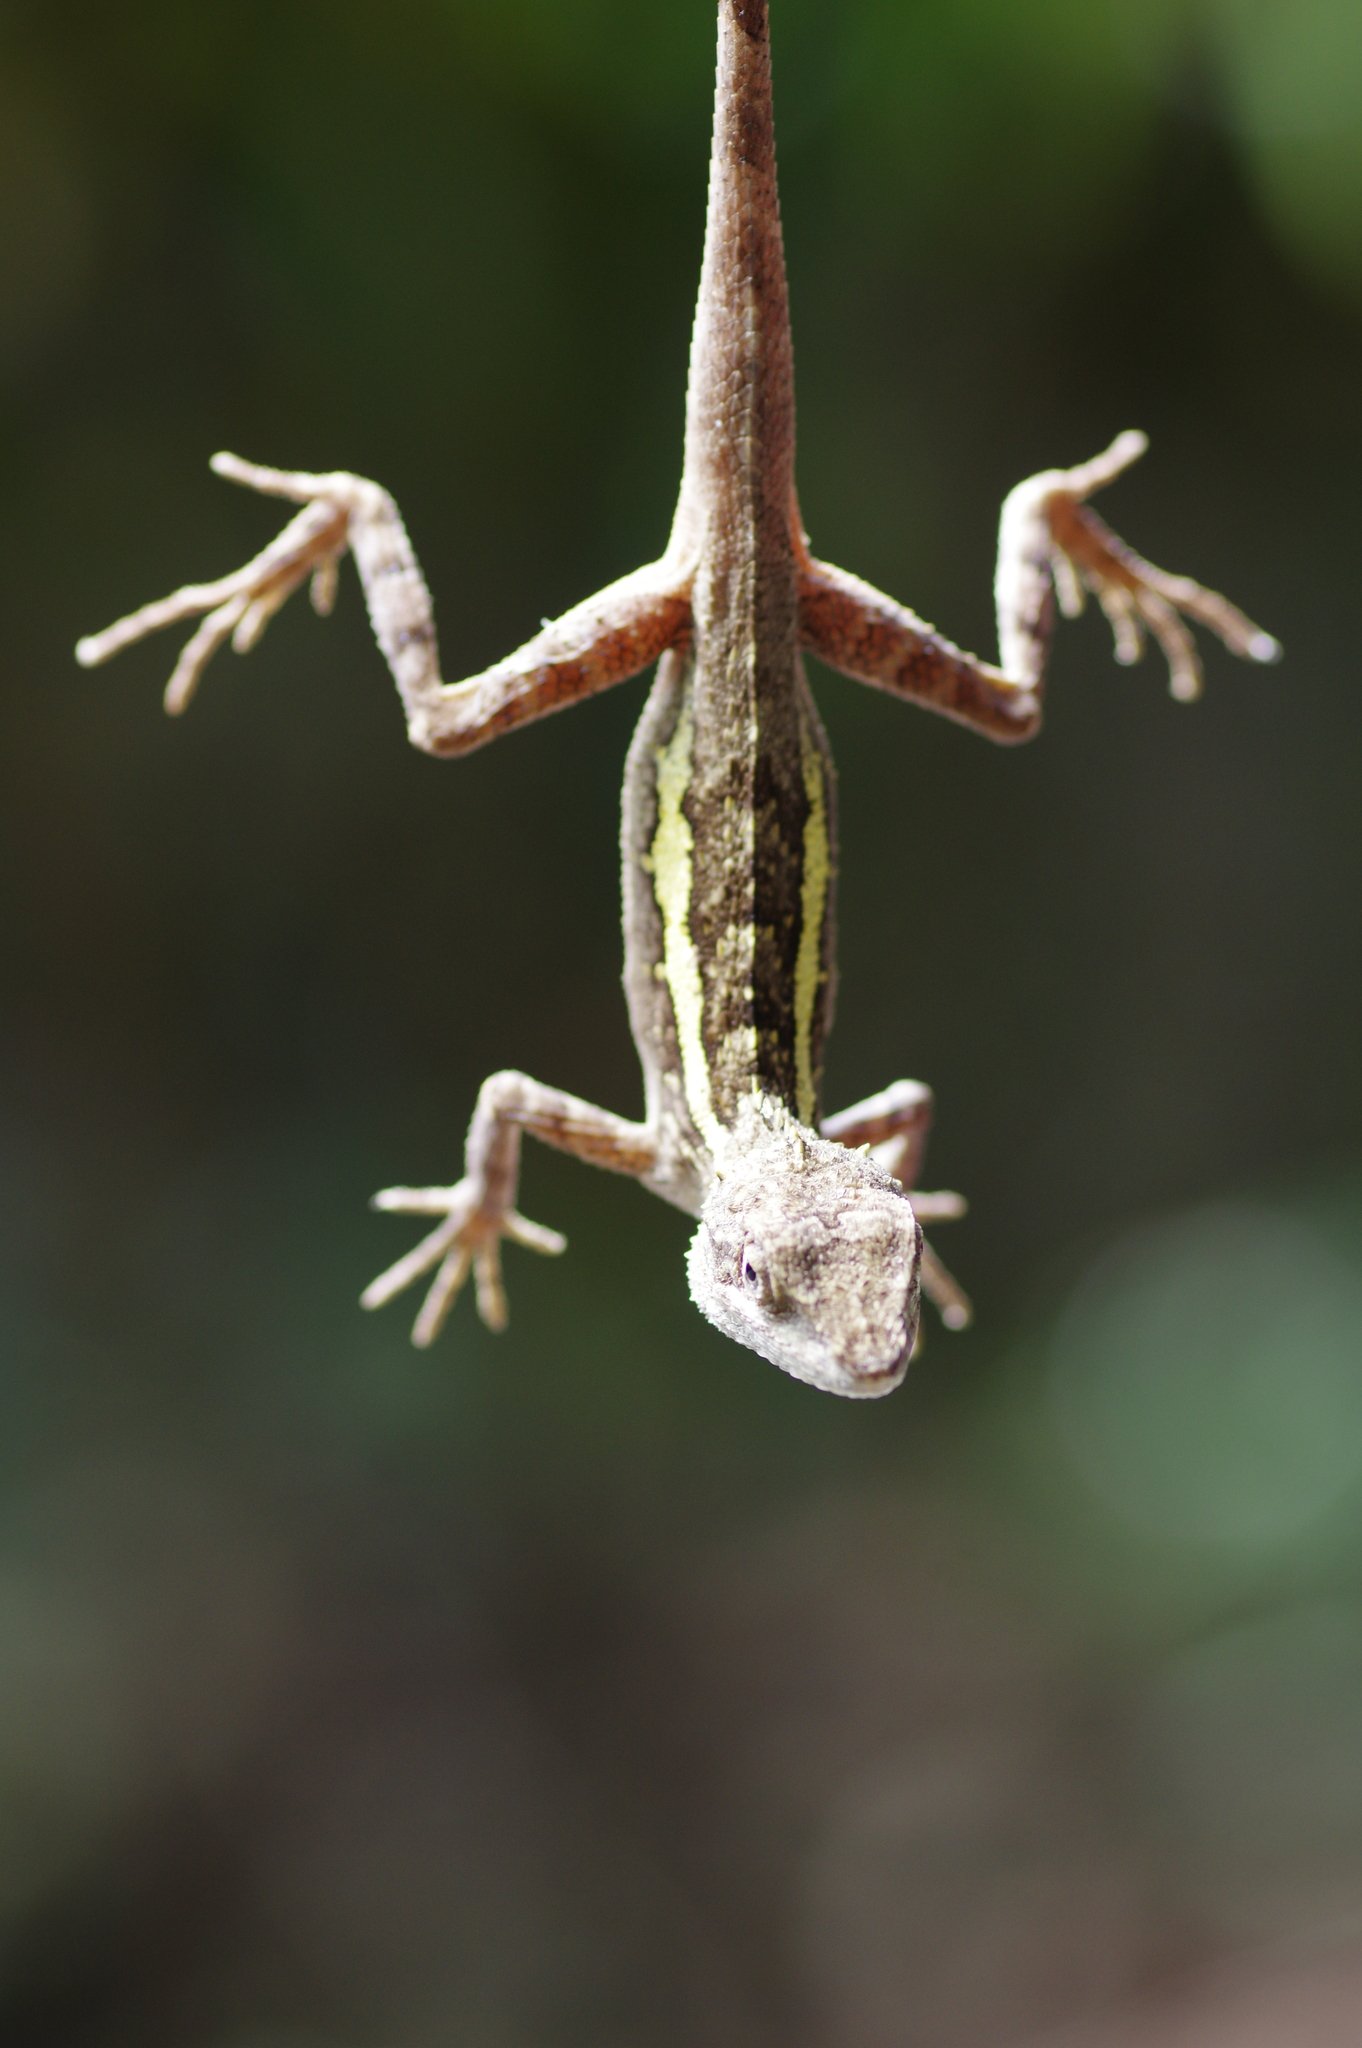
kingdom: Animalia
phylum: Chordata
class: Squamata
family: Agamidae
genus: Diploderma
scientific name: Diploderma swinhonis
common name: Taiwan japalure
